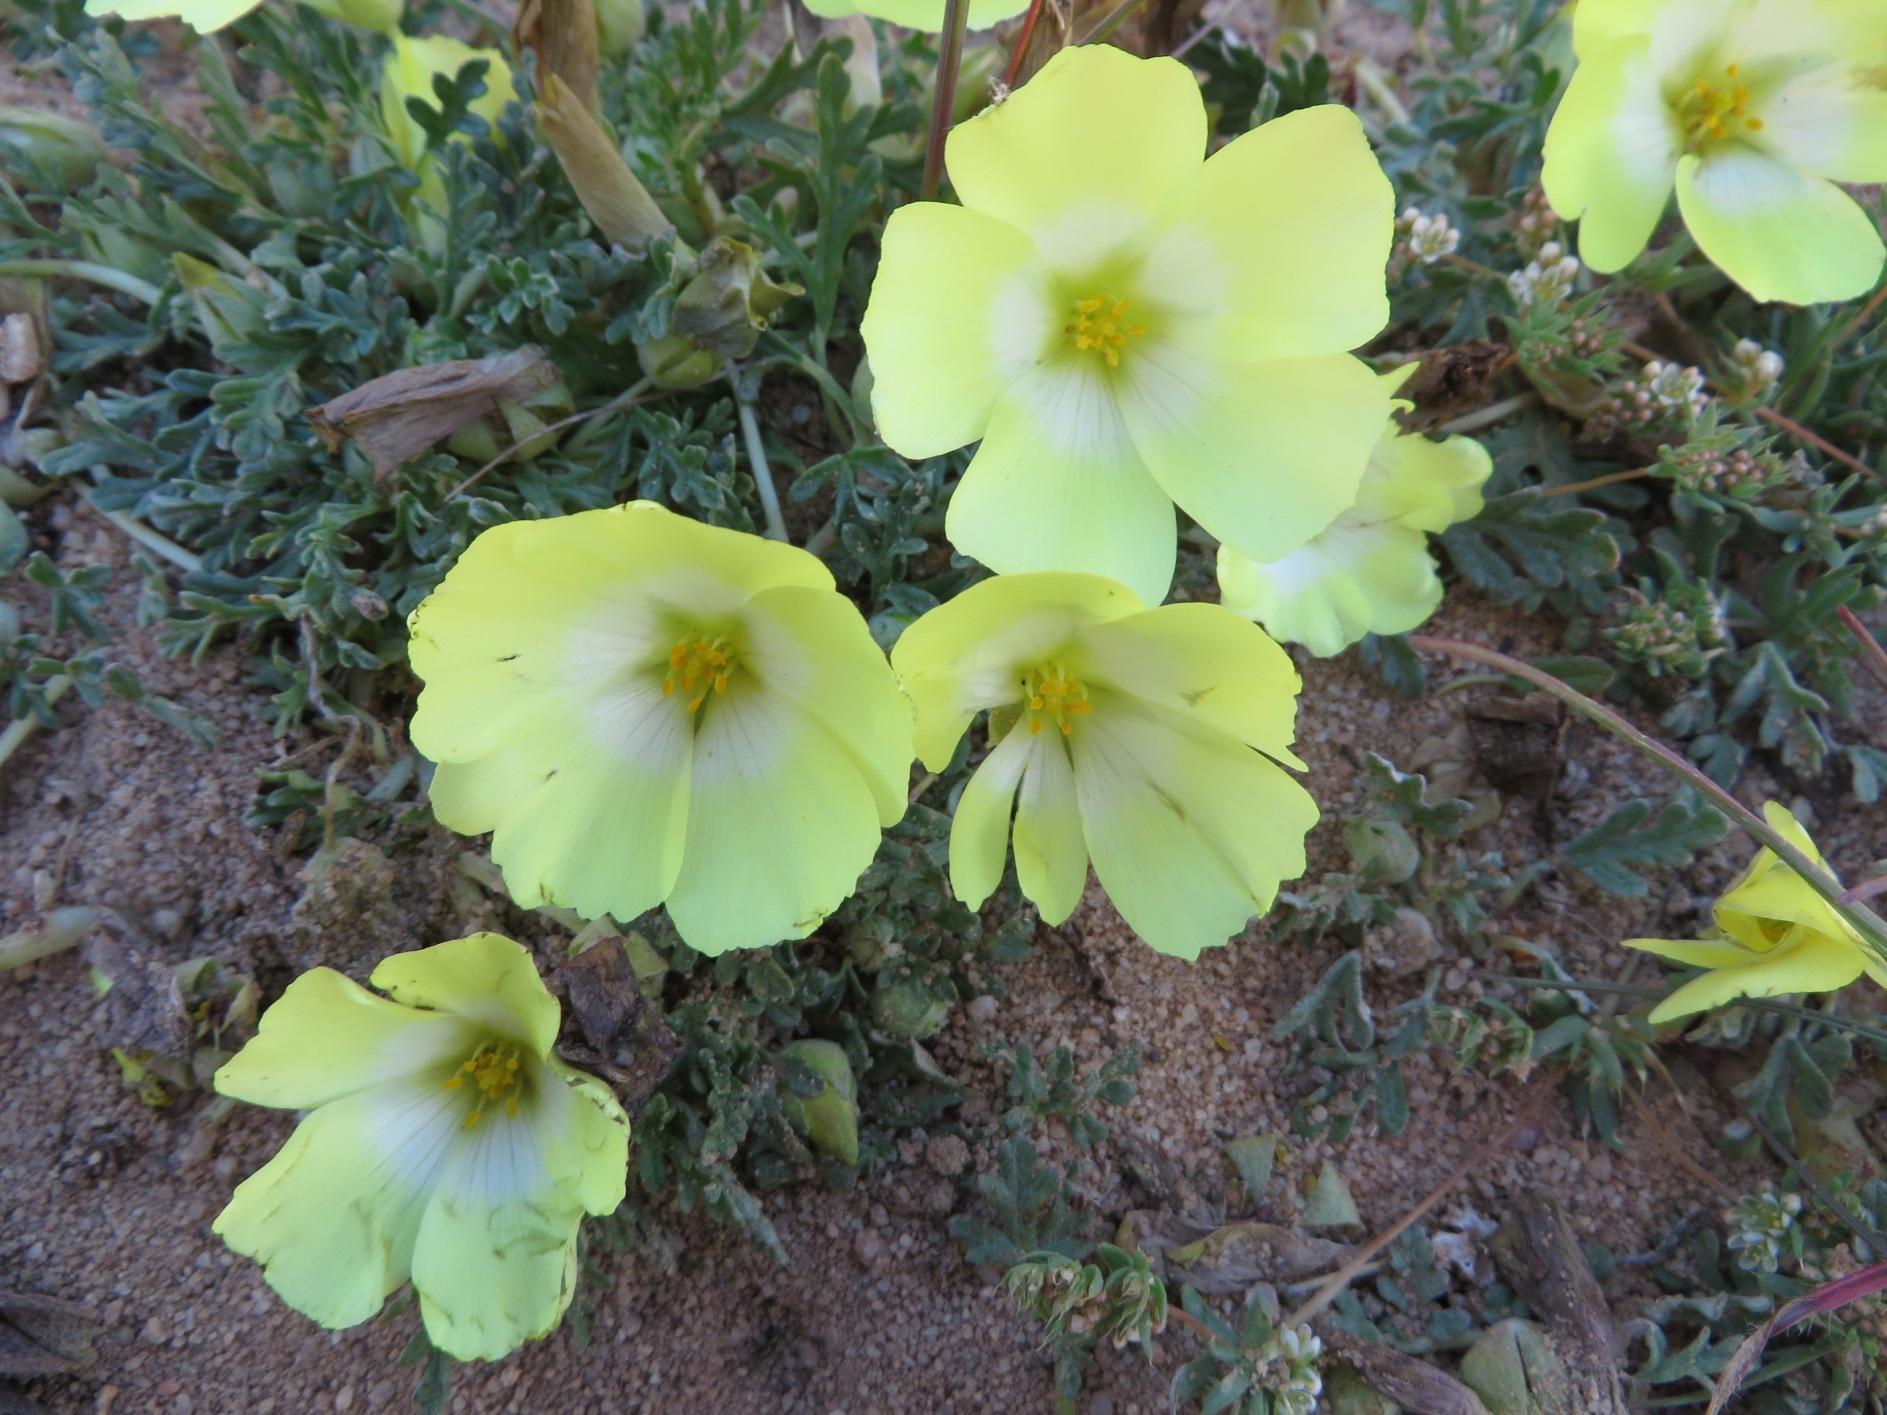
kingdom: Plantae
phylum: Tracheophyta
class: Magnoliopsida
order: Malvales
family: Neuradaceae
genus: Grielum
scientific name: Grielum humifusum
